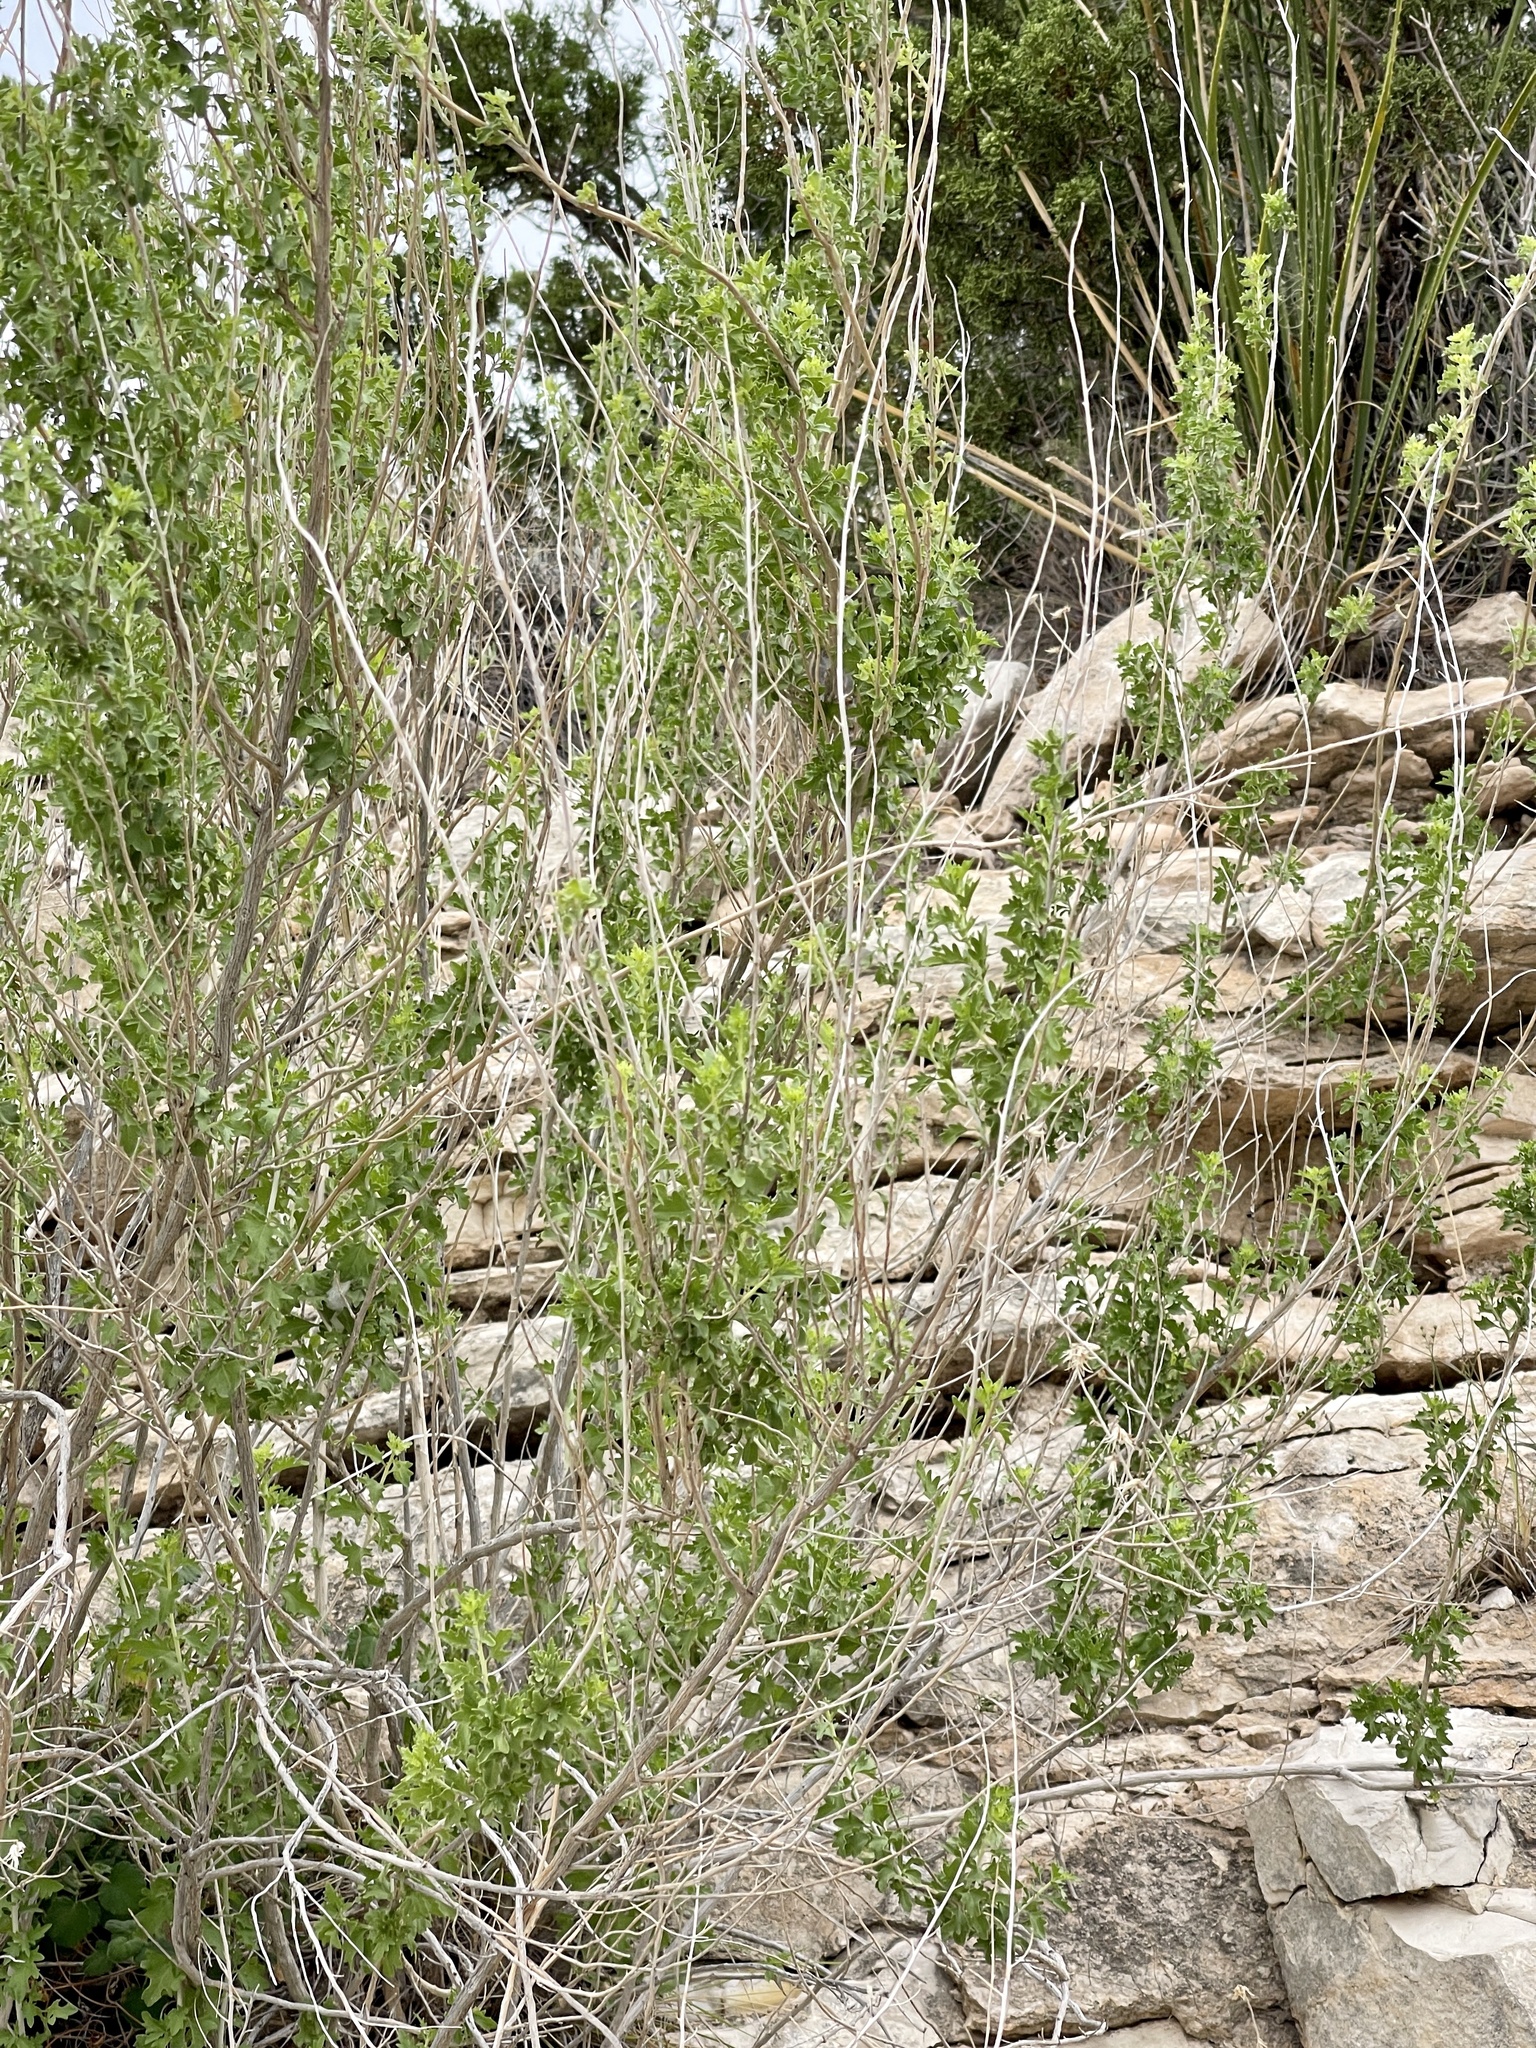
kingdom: Plantae
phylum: Tracheophyta
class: Magnoliopsida
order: Asterales
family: Asteraceae
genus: Brickellia
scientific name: Brickellia laciniata
